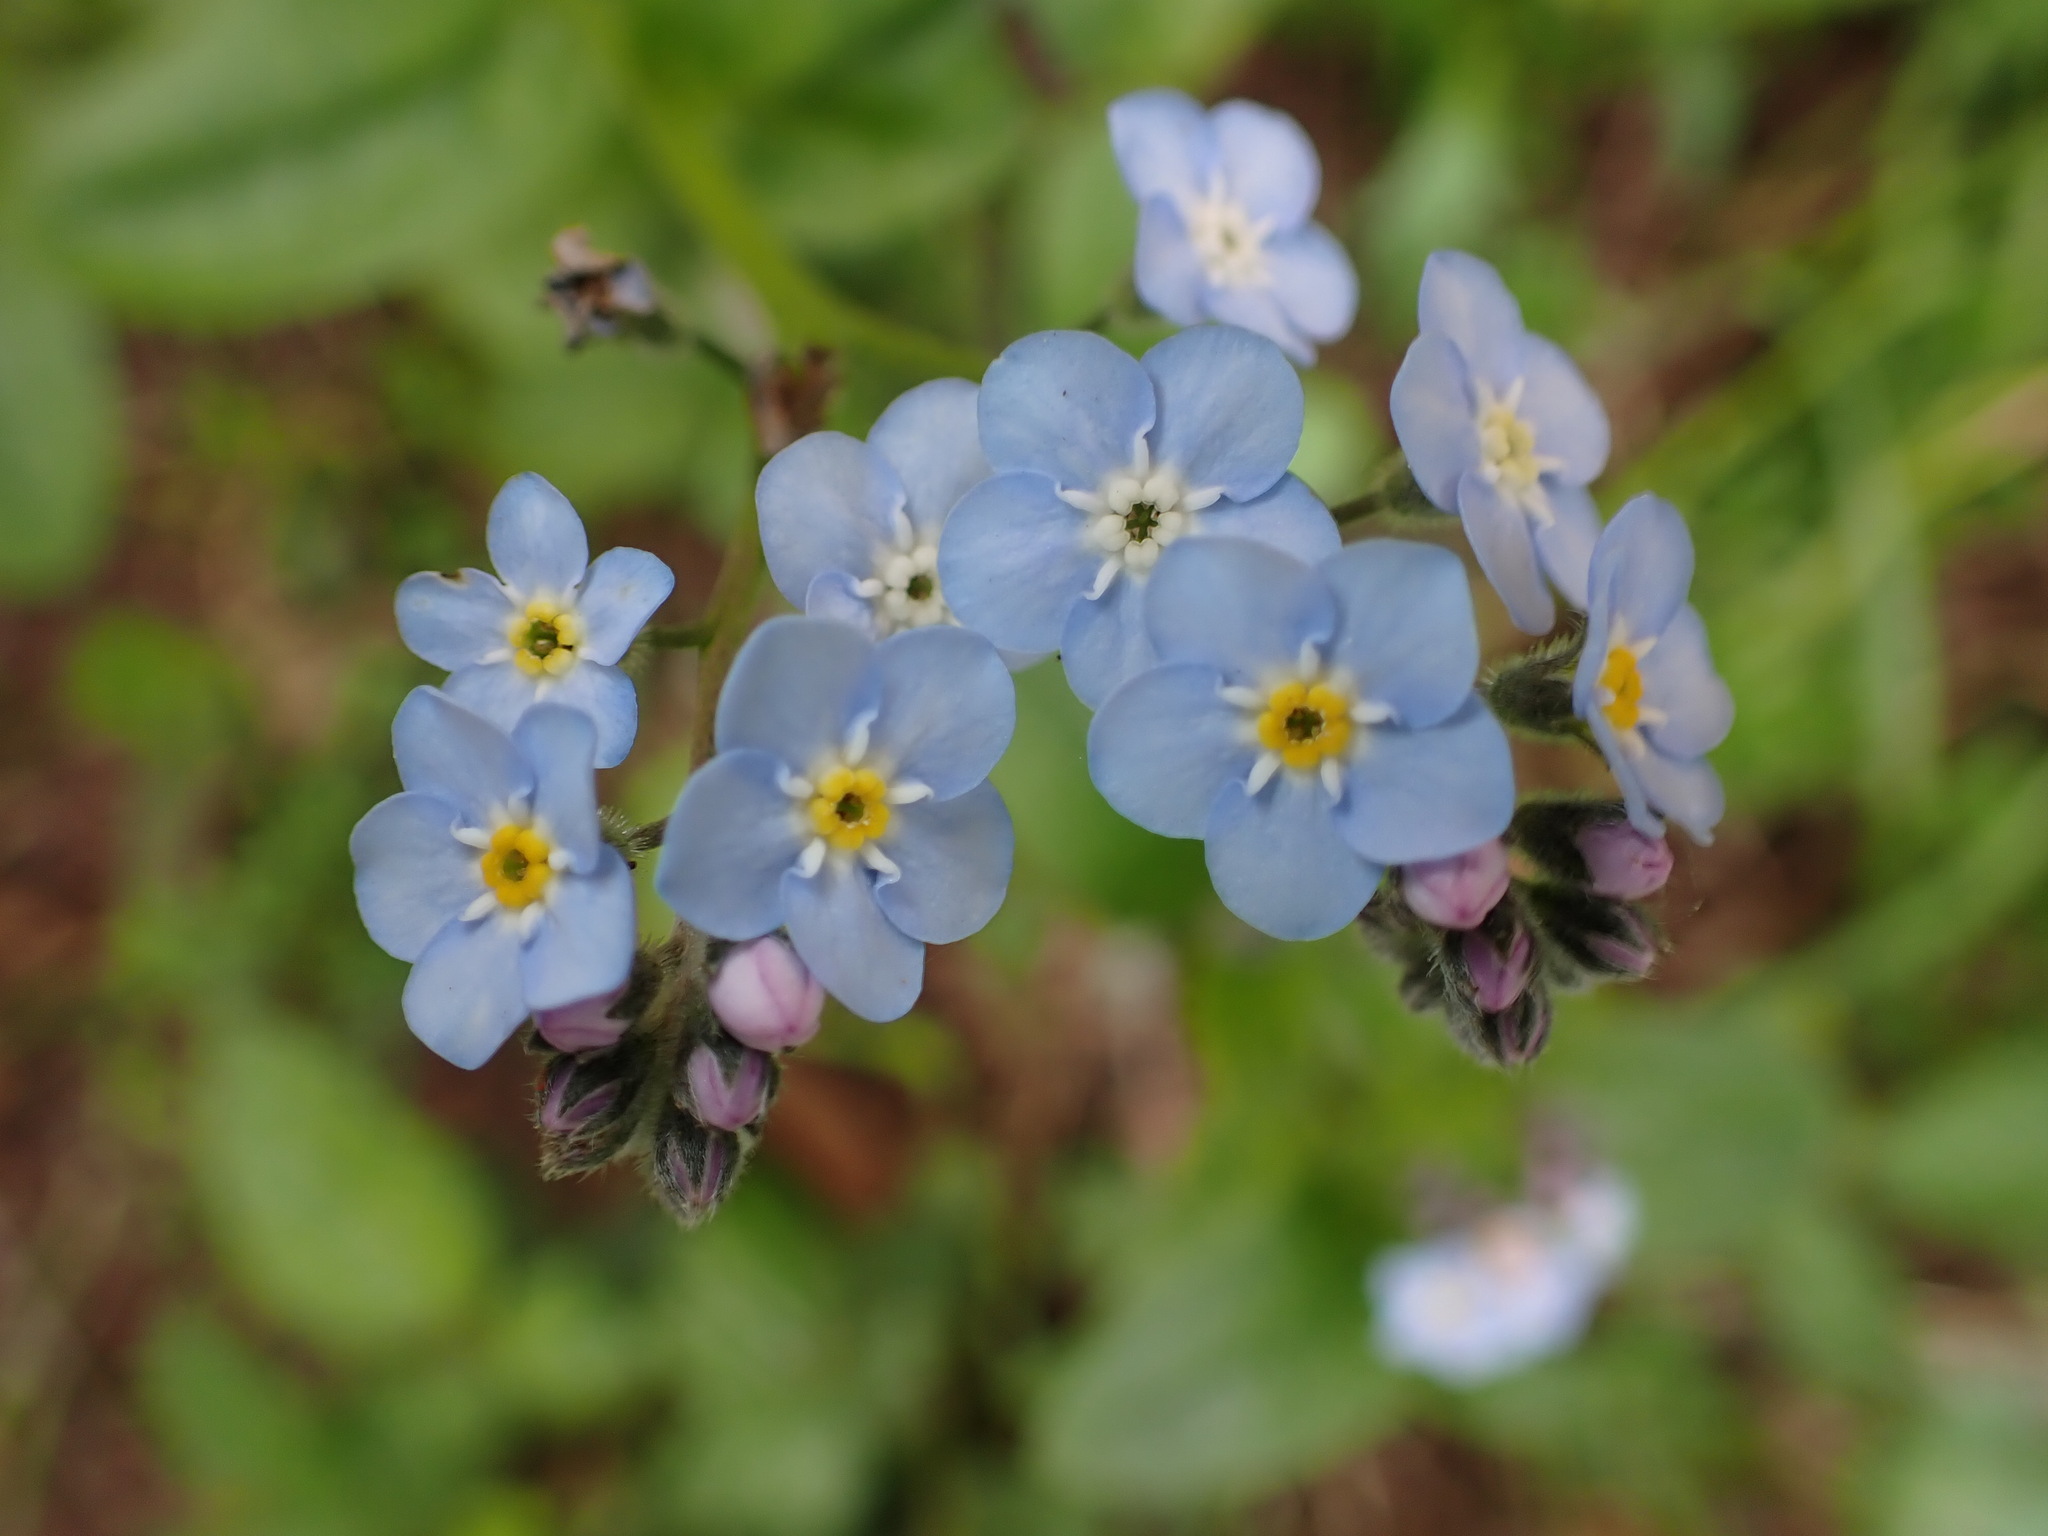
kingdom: Plantae
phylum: Tracheophyta
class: Magnoliopsida
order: Boraginales
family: Boraginaceae
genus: Myosotis
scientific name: Myosotis latifolia
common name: Broadleaf forget-me-not
